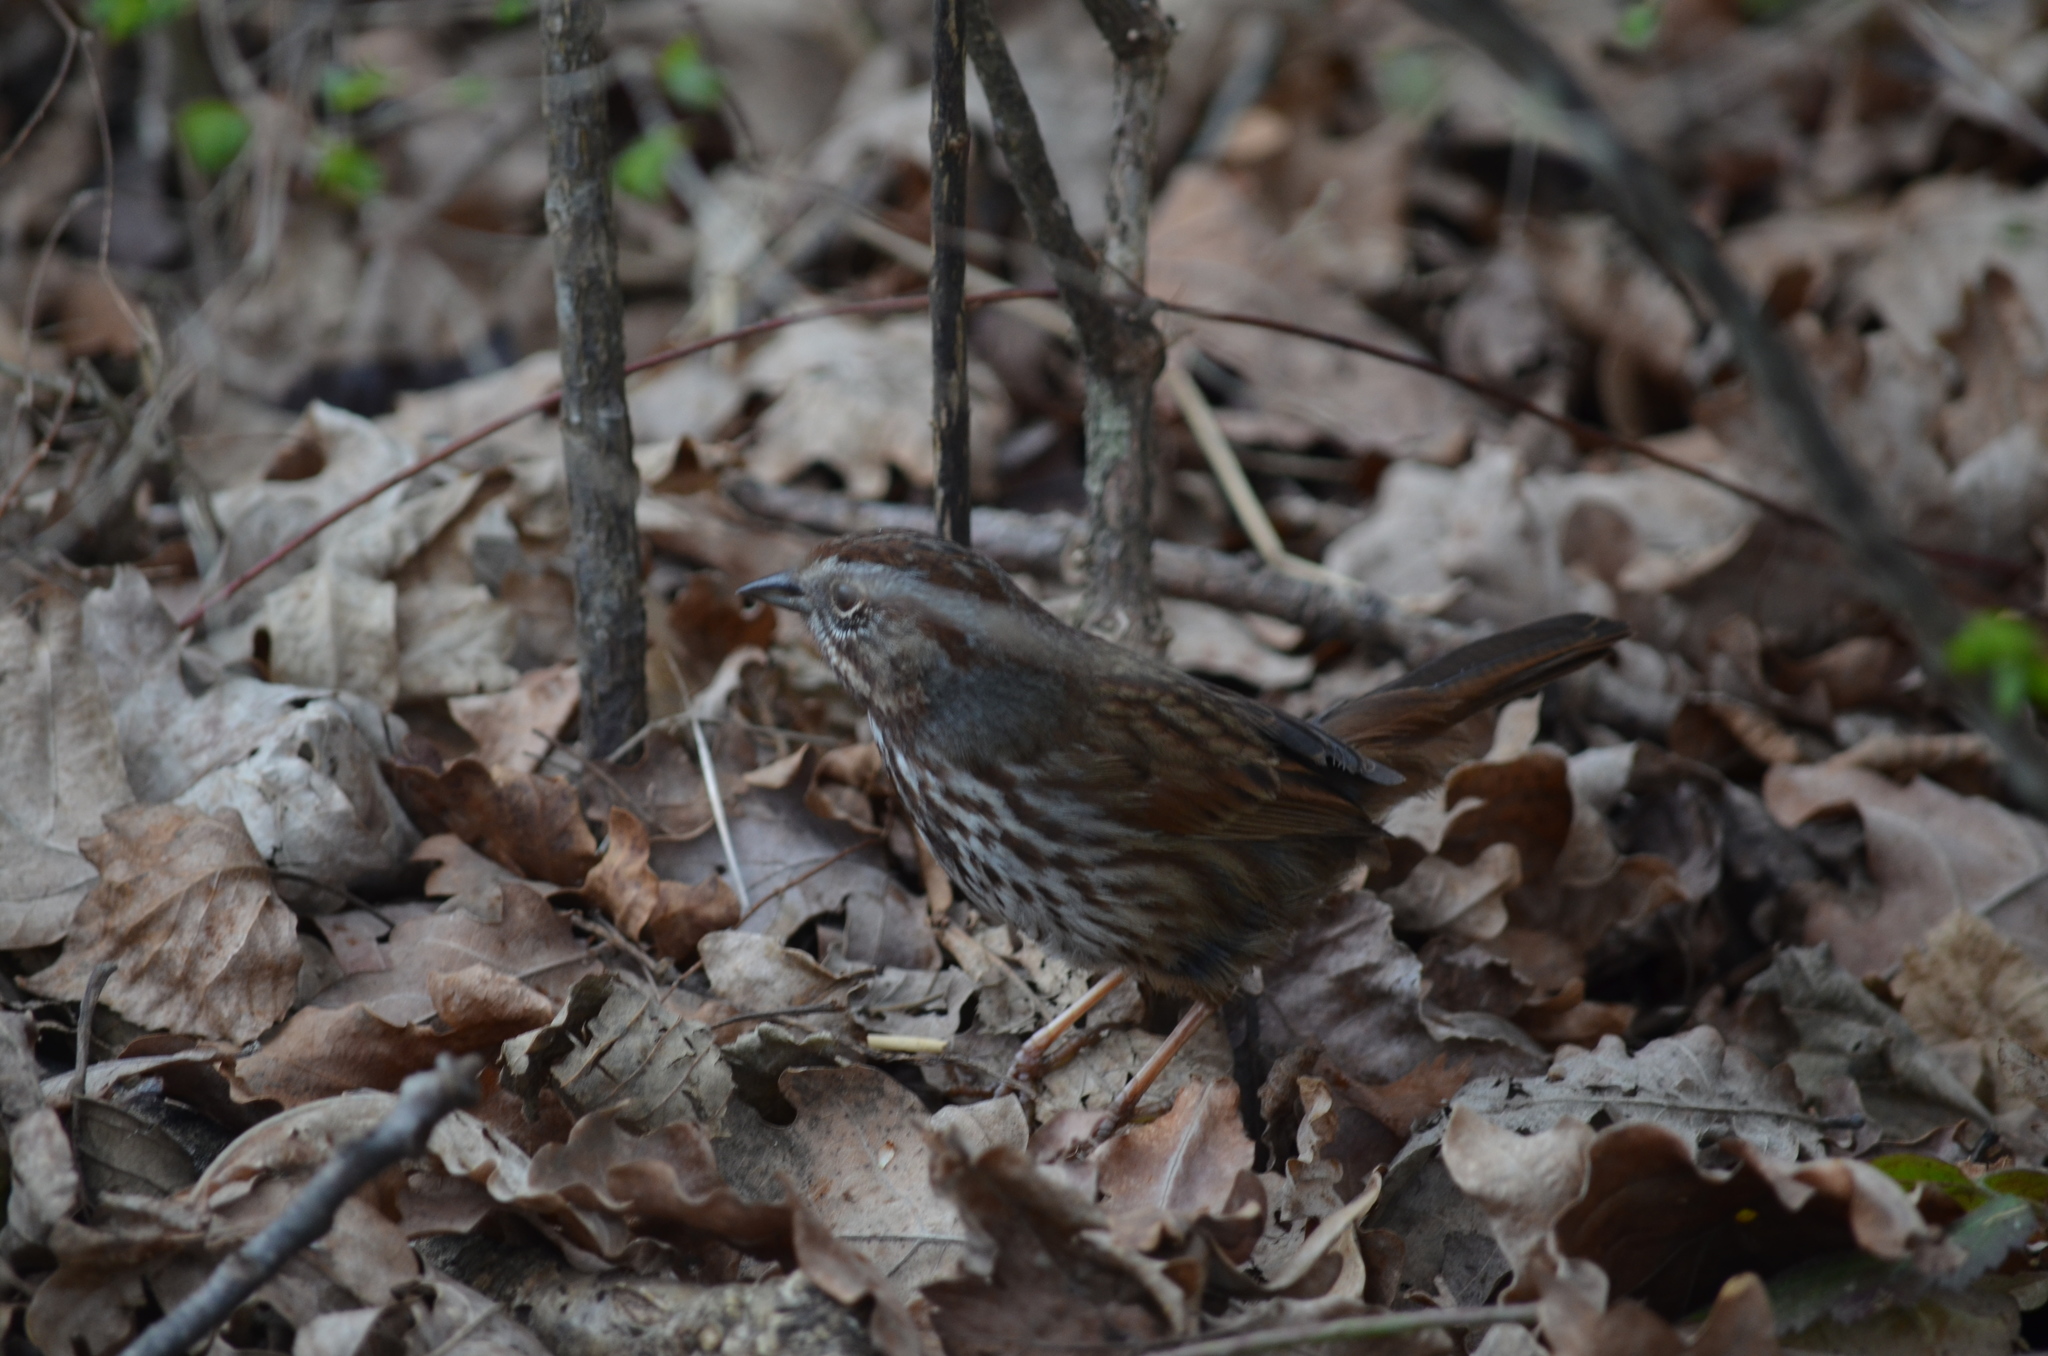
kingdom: Animalia
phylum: Chordata
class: Aves
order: Passeriformes
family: Passerellidae
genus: Melospiza
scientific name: Melospiza melodia
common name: Song sparrow
